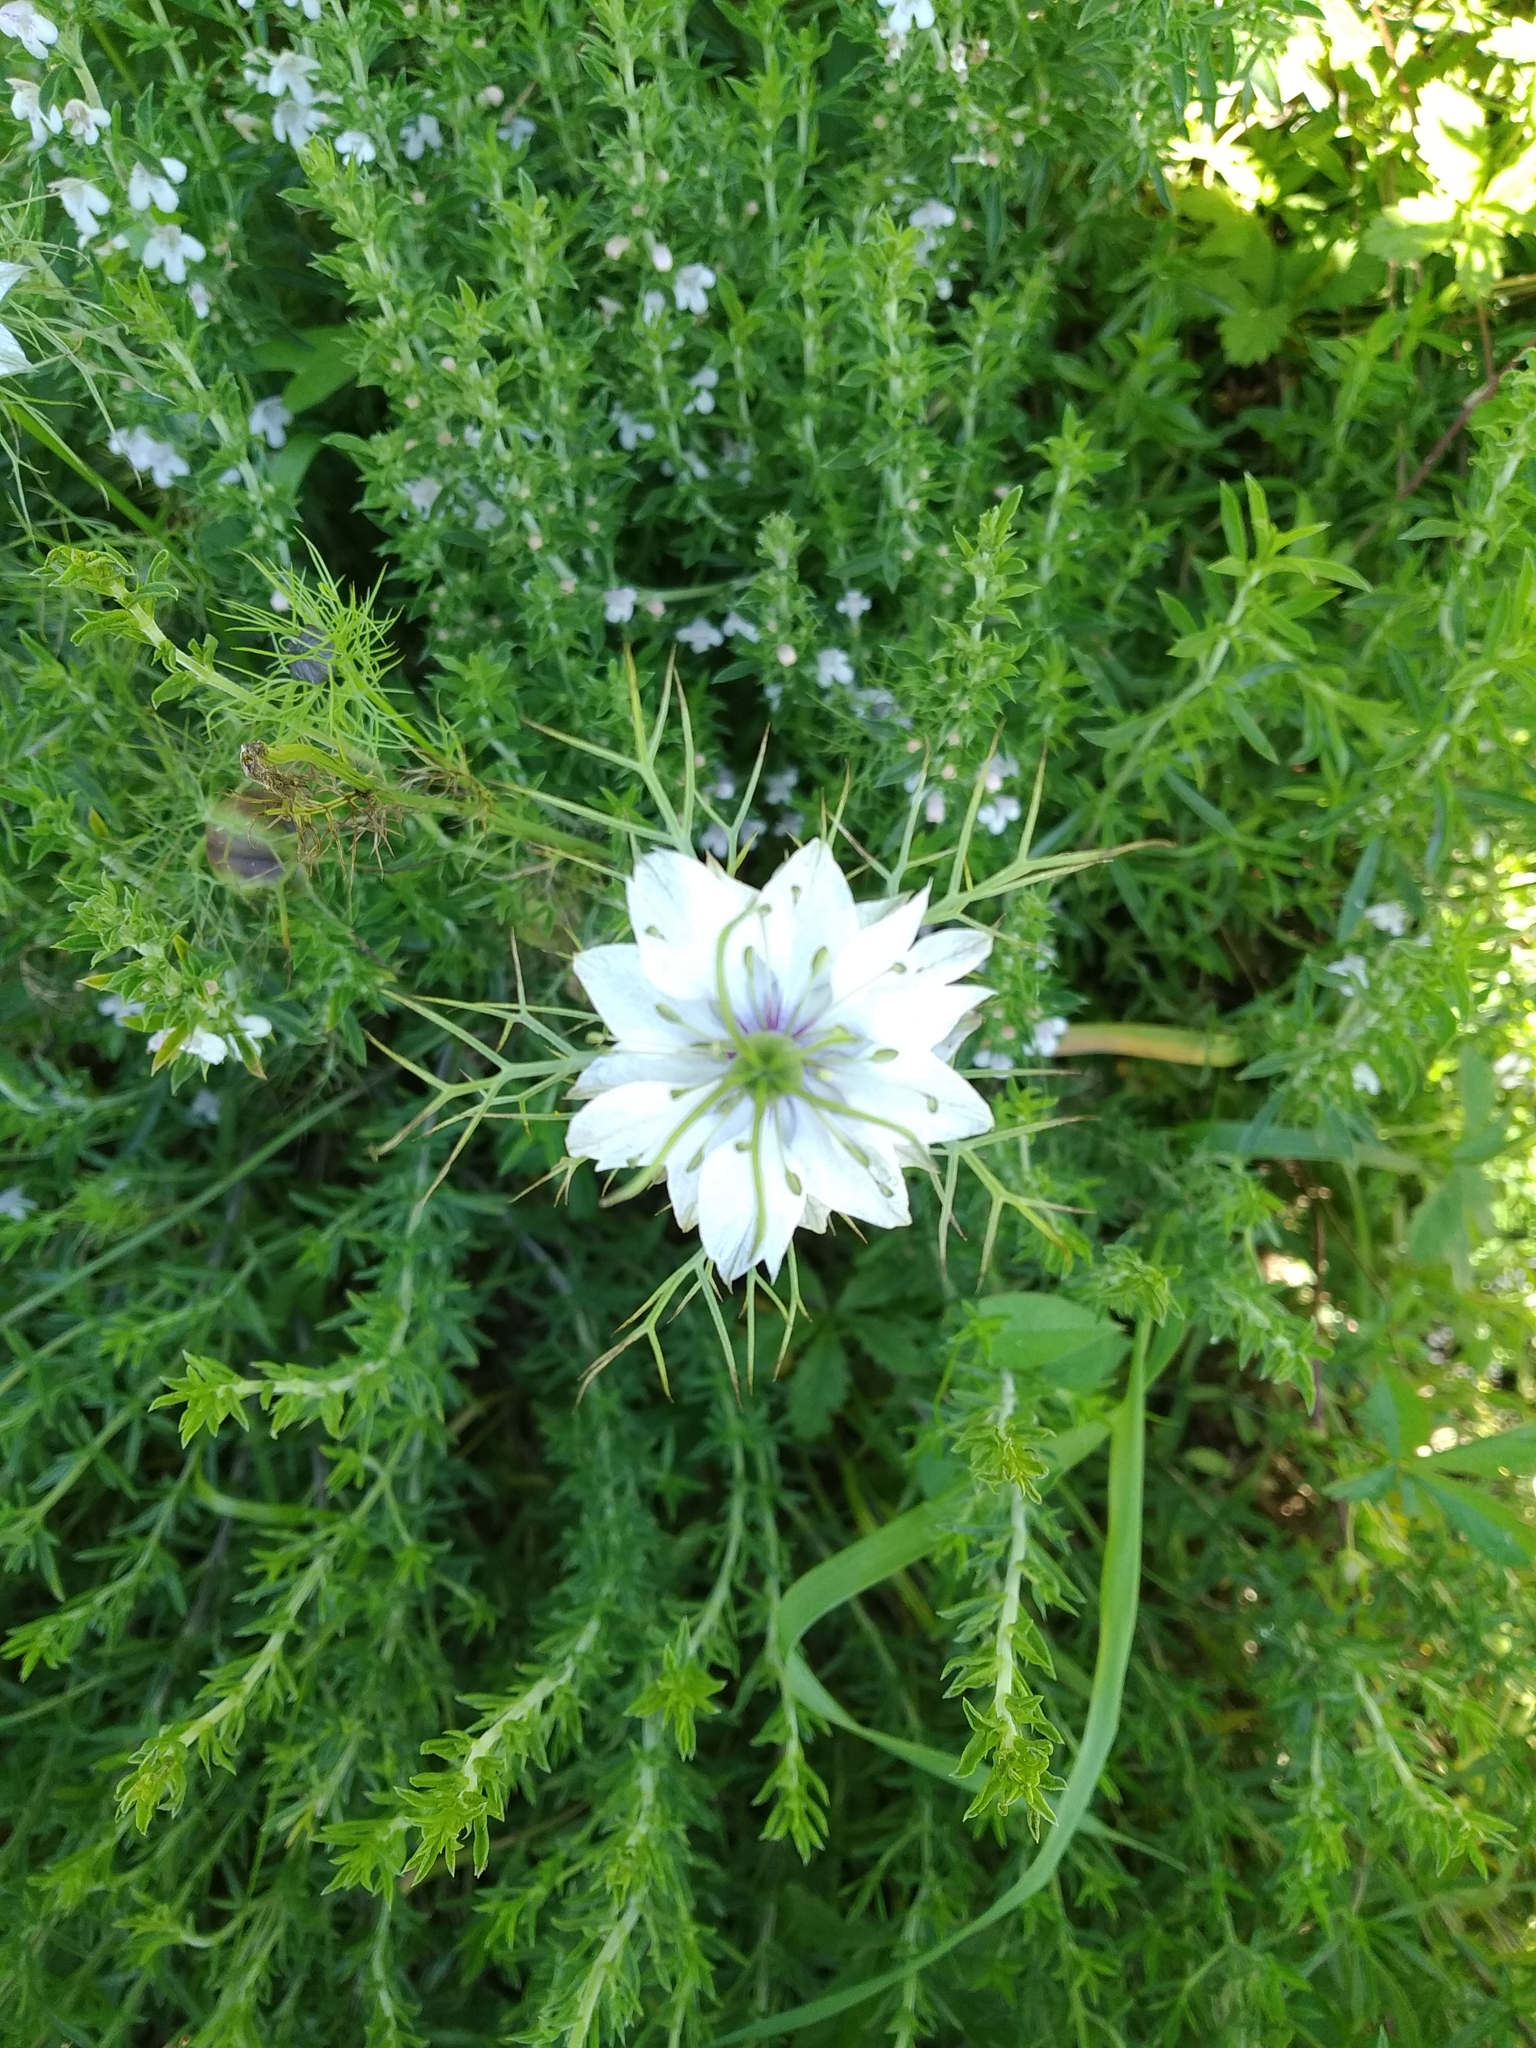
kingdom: Plantae
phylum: Tracheophyta
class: Magnoliopsida
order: Ranunculales
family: Ranunculaceae
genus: Nigella
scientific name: Nigella damascena
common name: Love-in-a-mist
